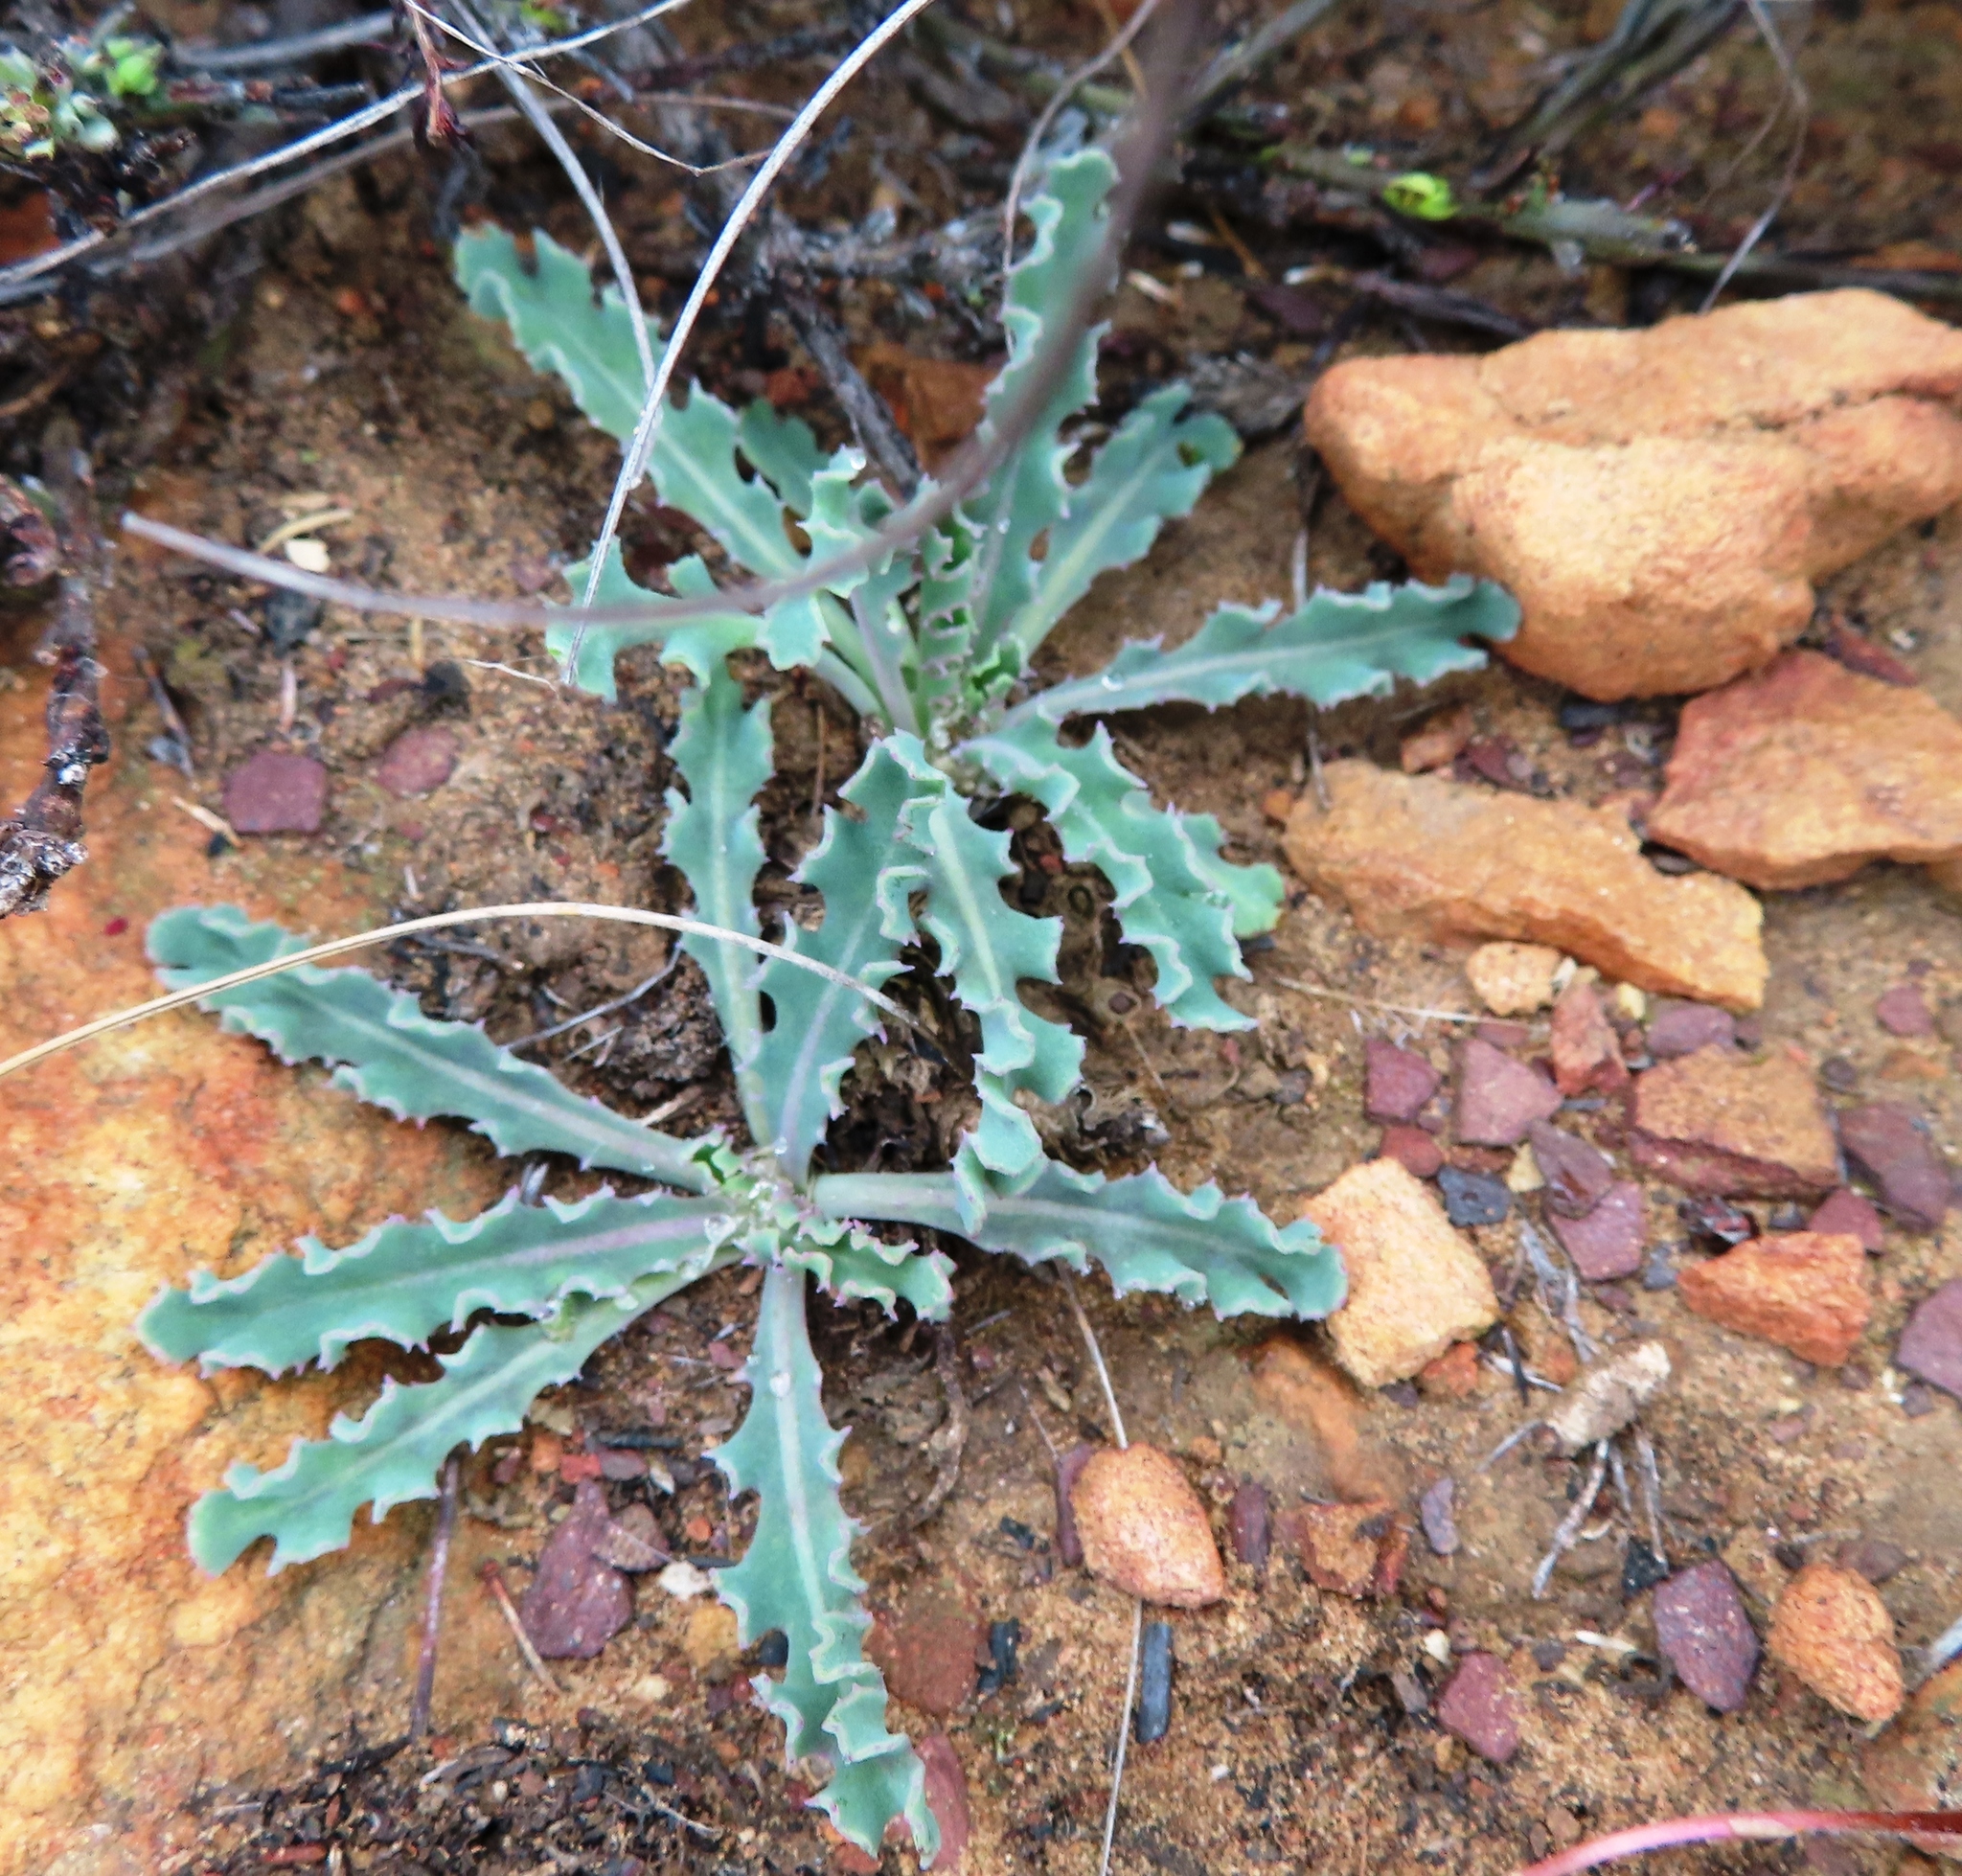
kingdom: Plantae
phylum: Tracheophyta
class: Magnoliopsida
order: Asterales
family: Asteraceae
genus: Othonna
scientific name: Othonna auriculifolia
